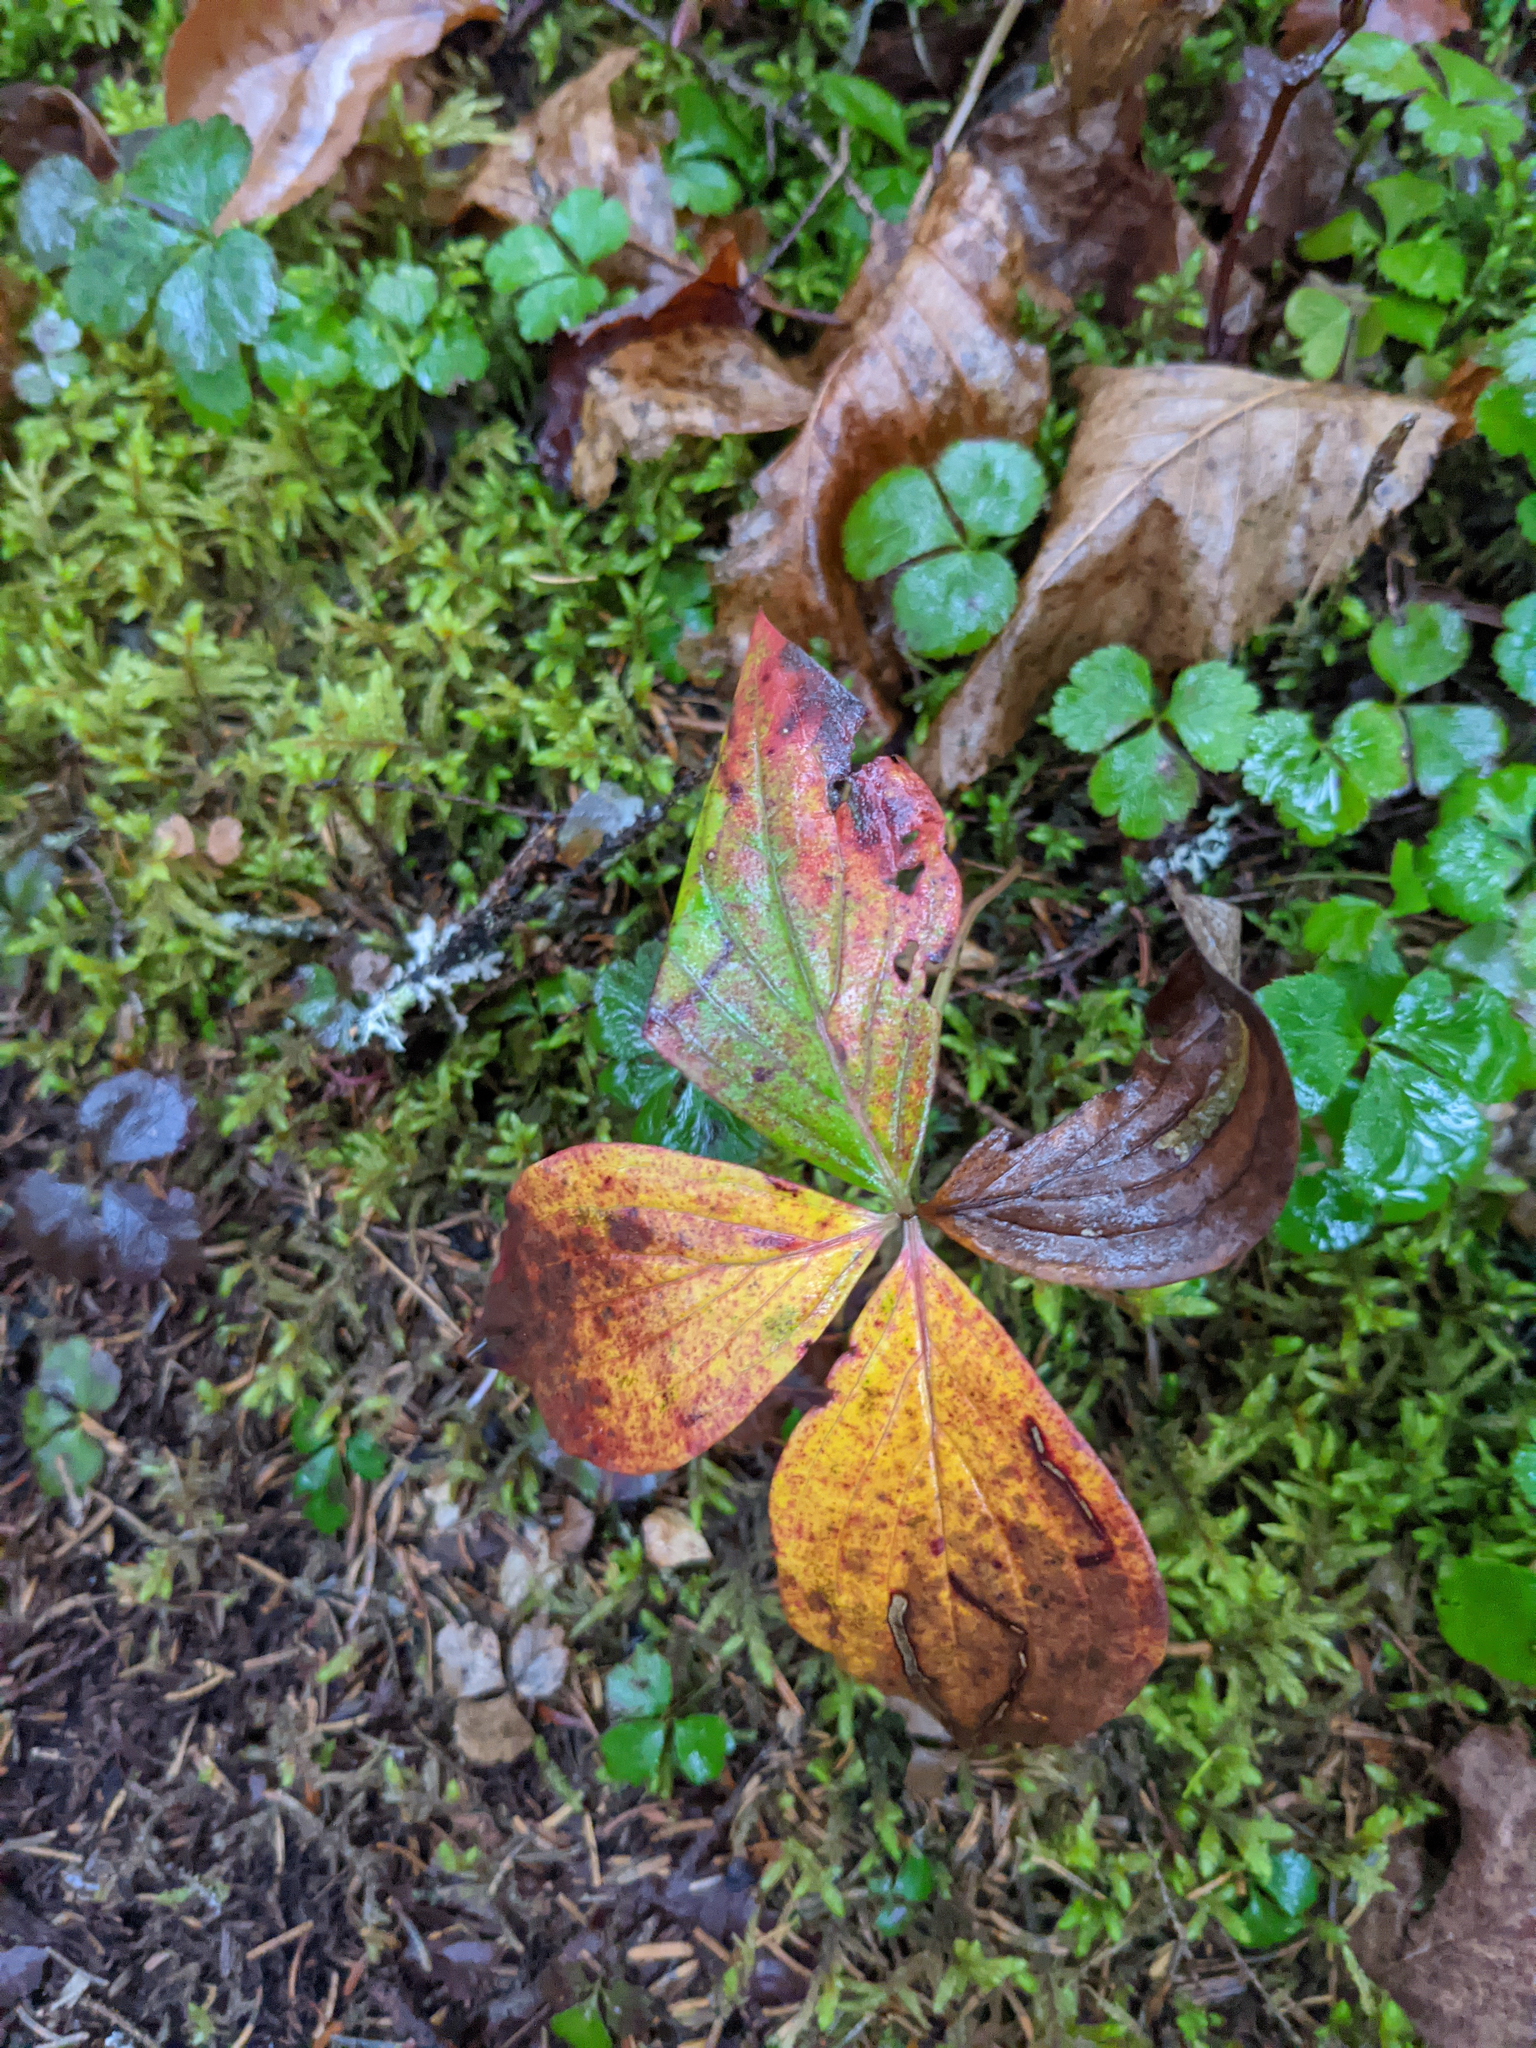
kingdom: Plantae
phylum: Tracheophyta
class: Magnoliopsida
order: Cornales
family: Cornaceae
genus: Cornus
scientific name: Cornus canadensis
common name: Creeping dogwood
